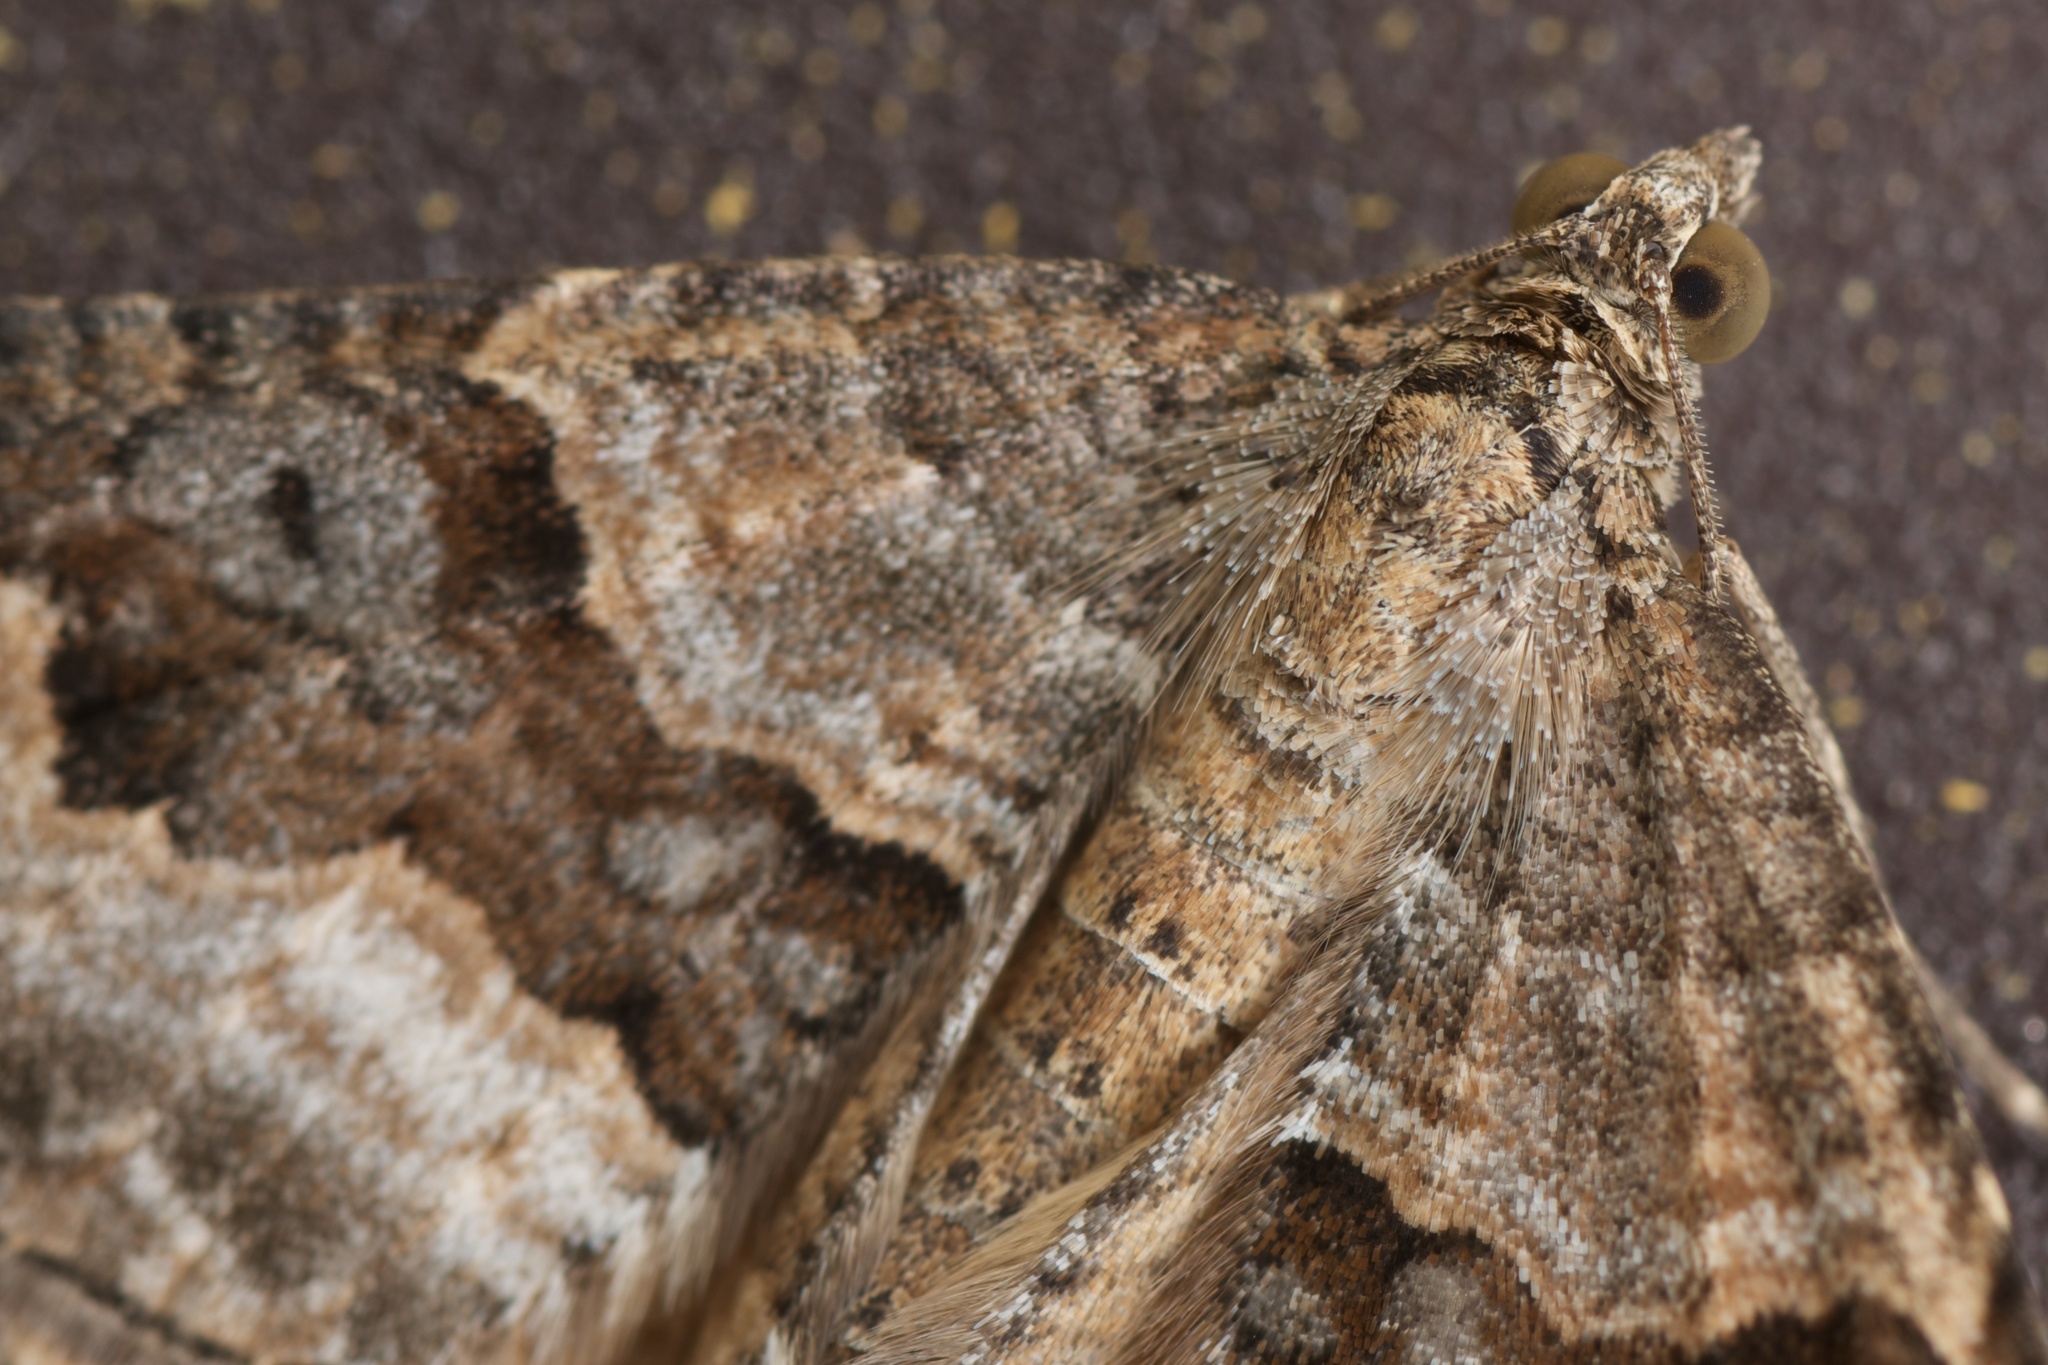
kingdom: Animalia
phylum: Arthropoda
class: Insecta
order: Lepidoptera
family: Geometridae
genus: Hydriomena
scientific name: Hydriomena deltoidata
